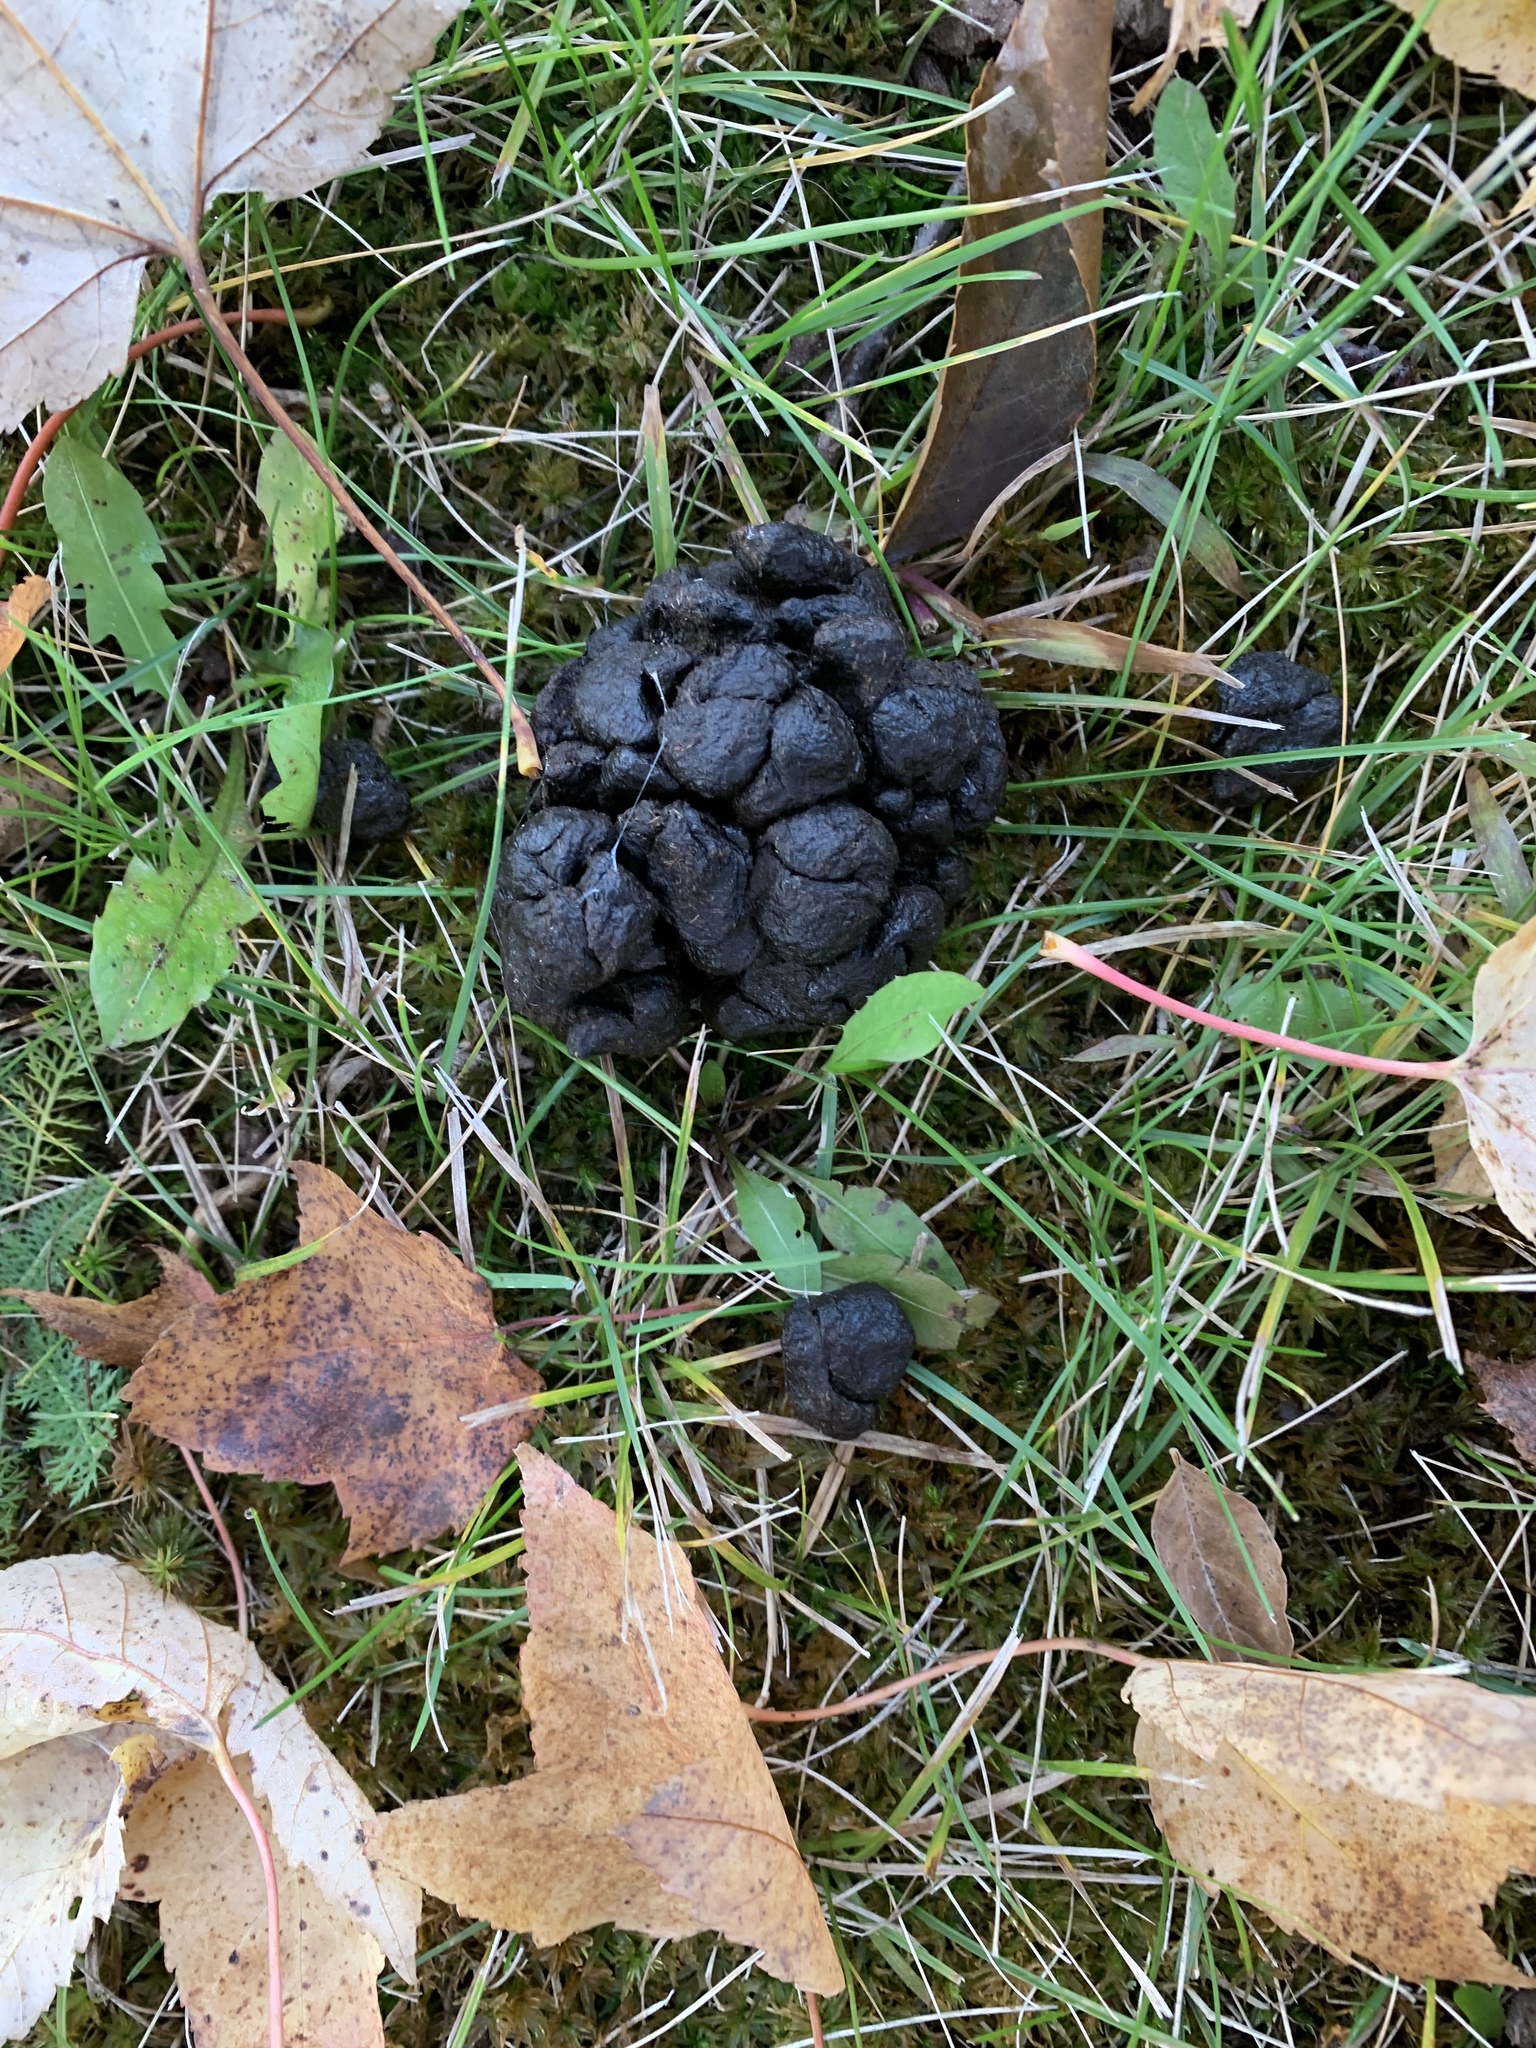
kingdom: Animalia
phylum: Chordata
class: Mammalia
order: Artiodactyla
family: Cervidae
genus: Odocoileus
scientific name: Odocoileus virginianus
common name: White-tailed deer
